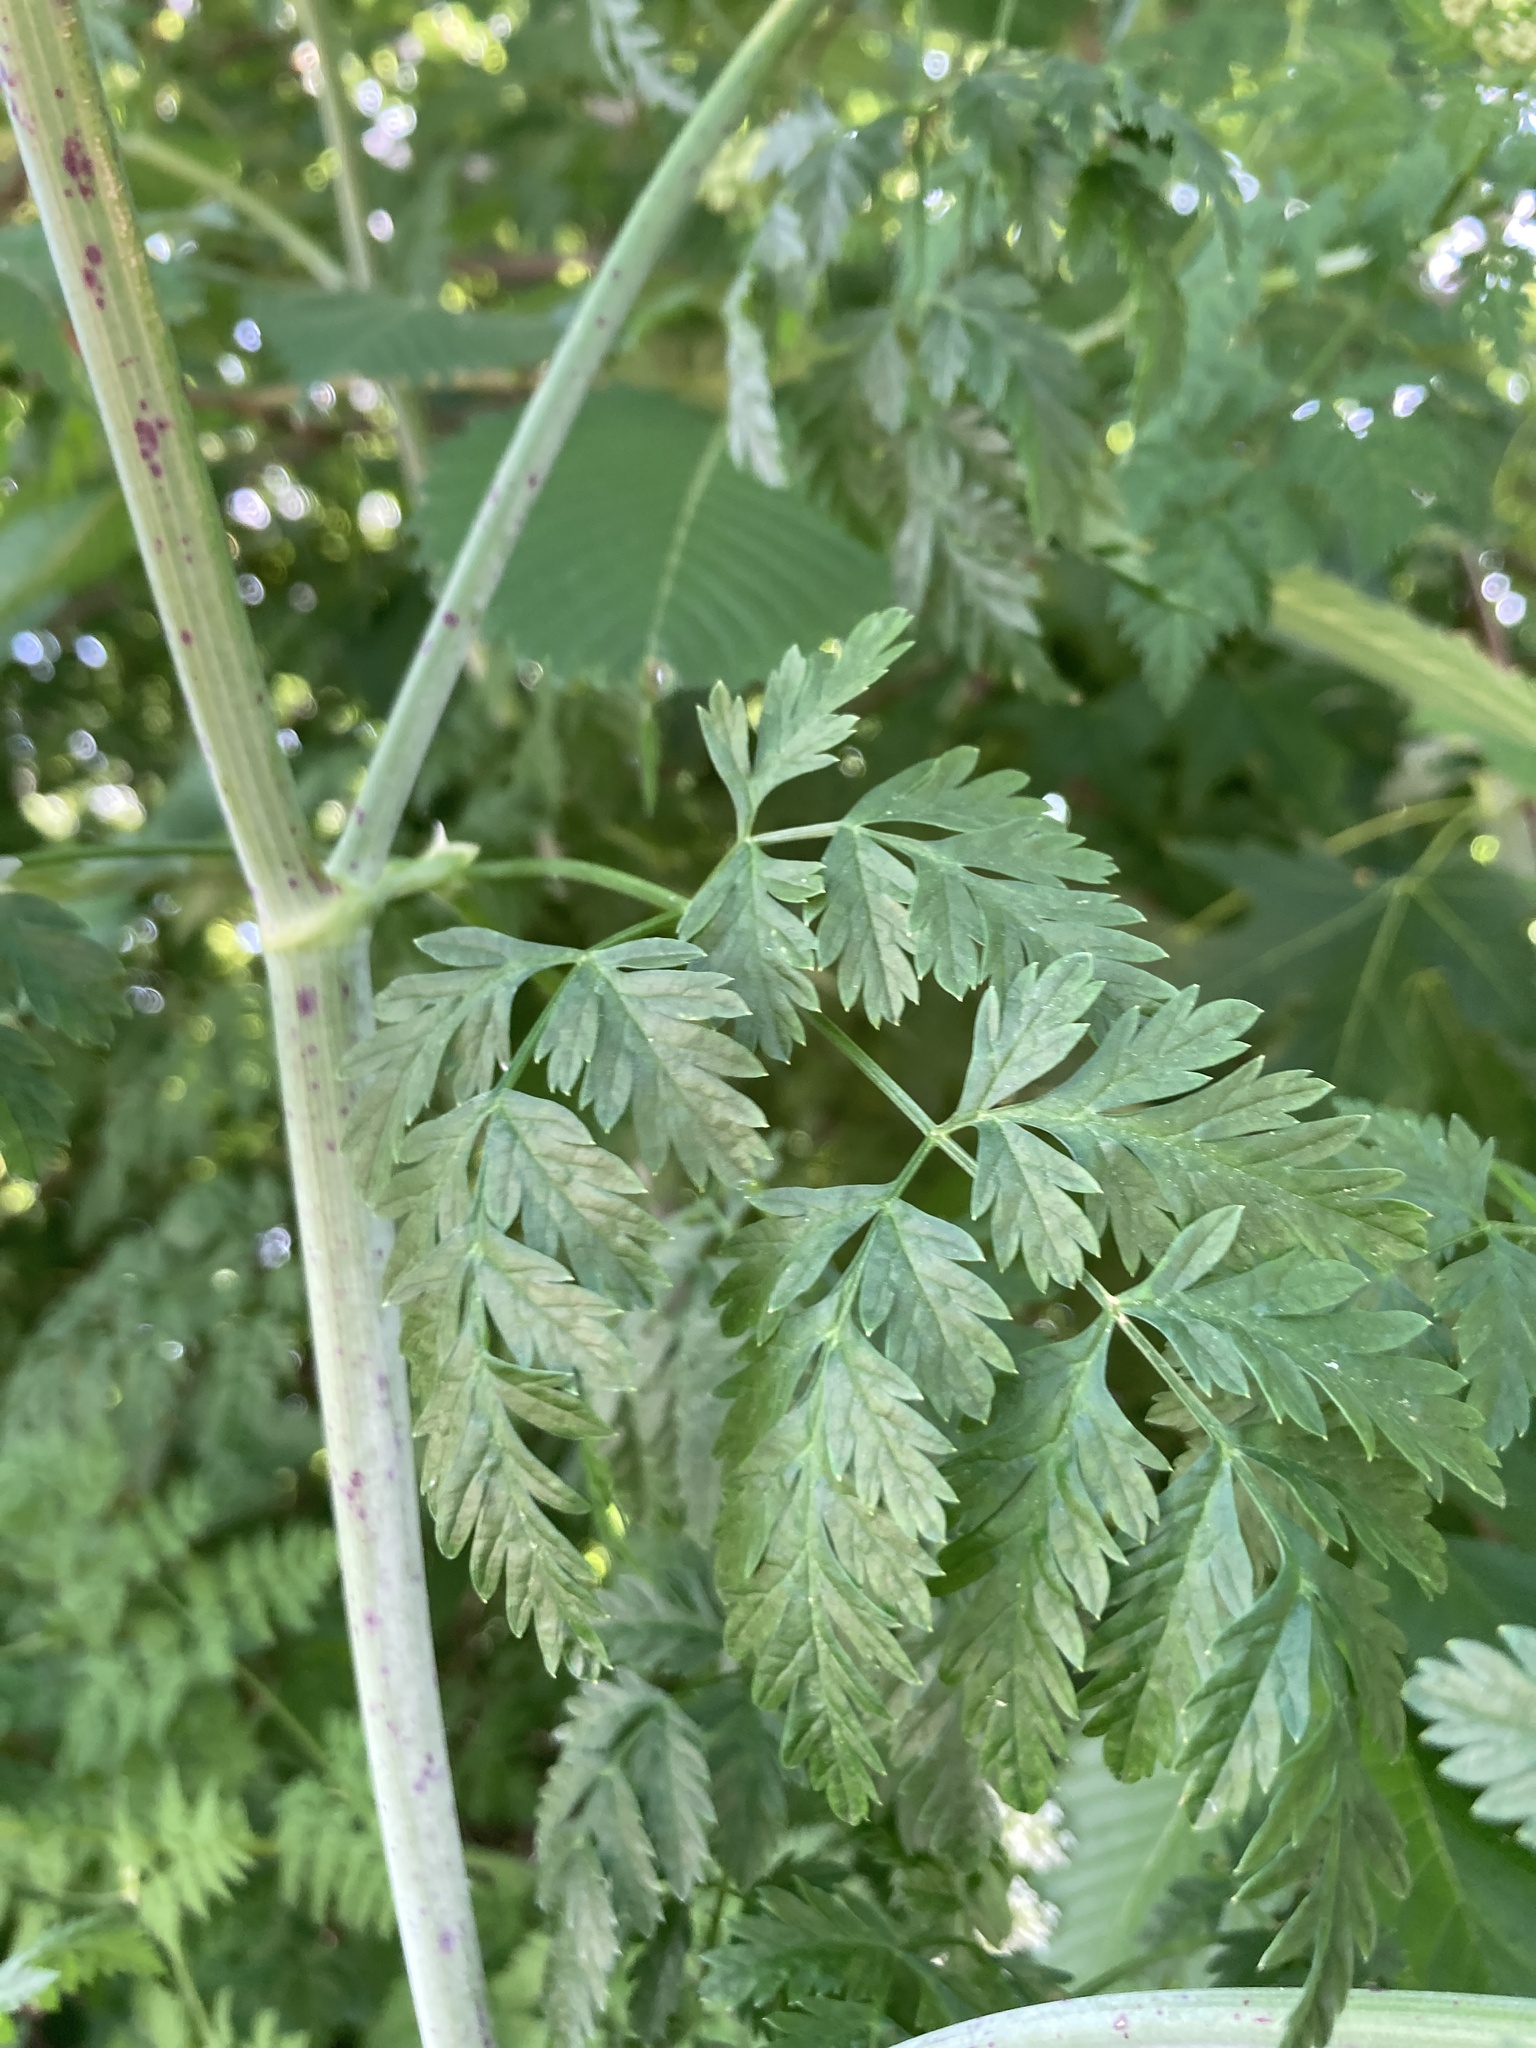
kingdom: Plantae
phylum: Tracheophyta
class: Magnoliopsida
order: Apiales
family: Apiaceae
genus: Conium
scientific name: Conium maculatum
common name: Hemlock
